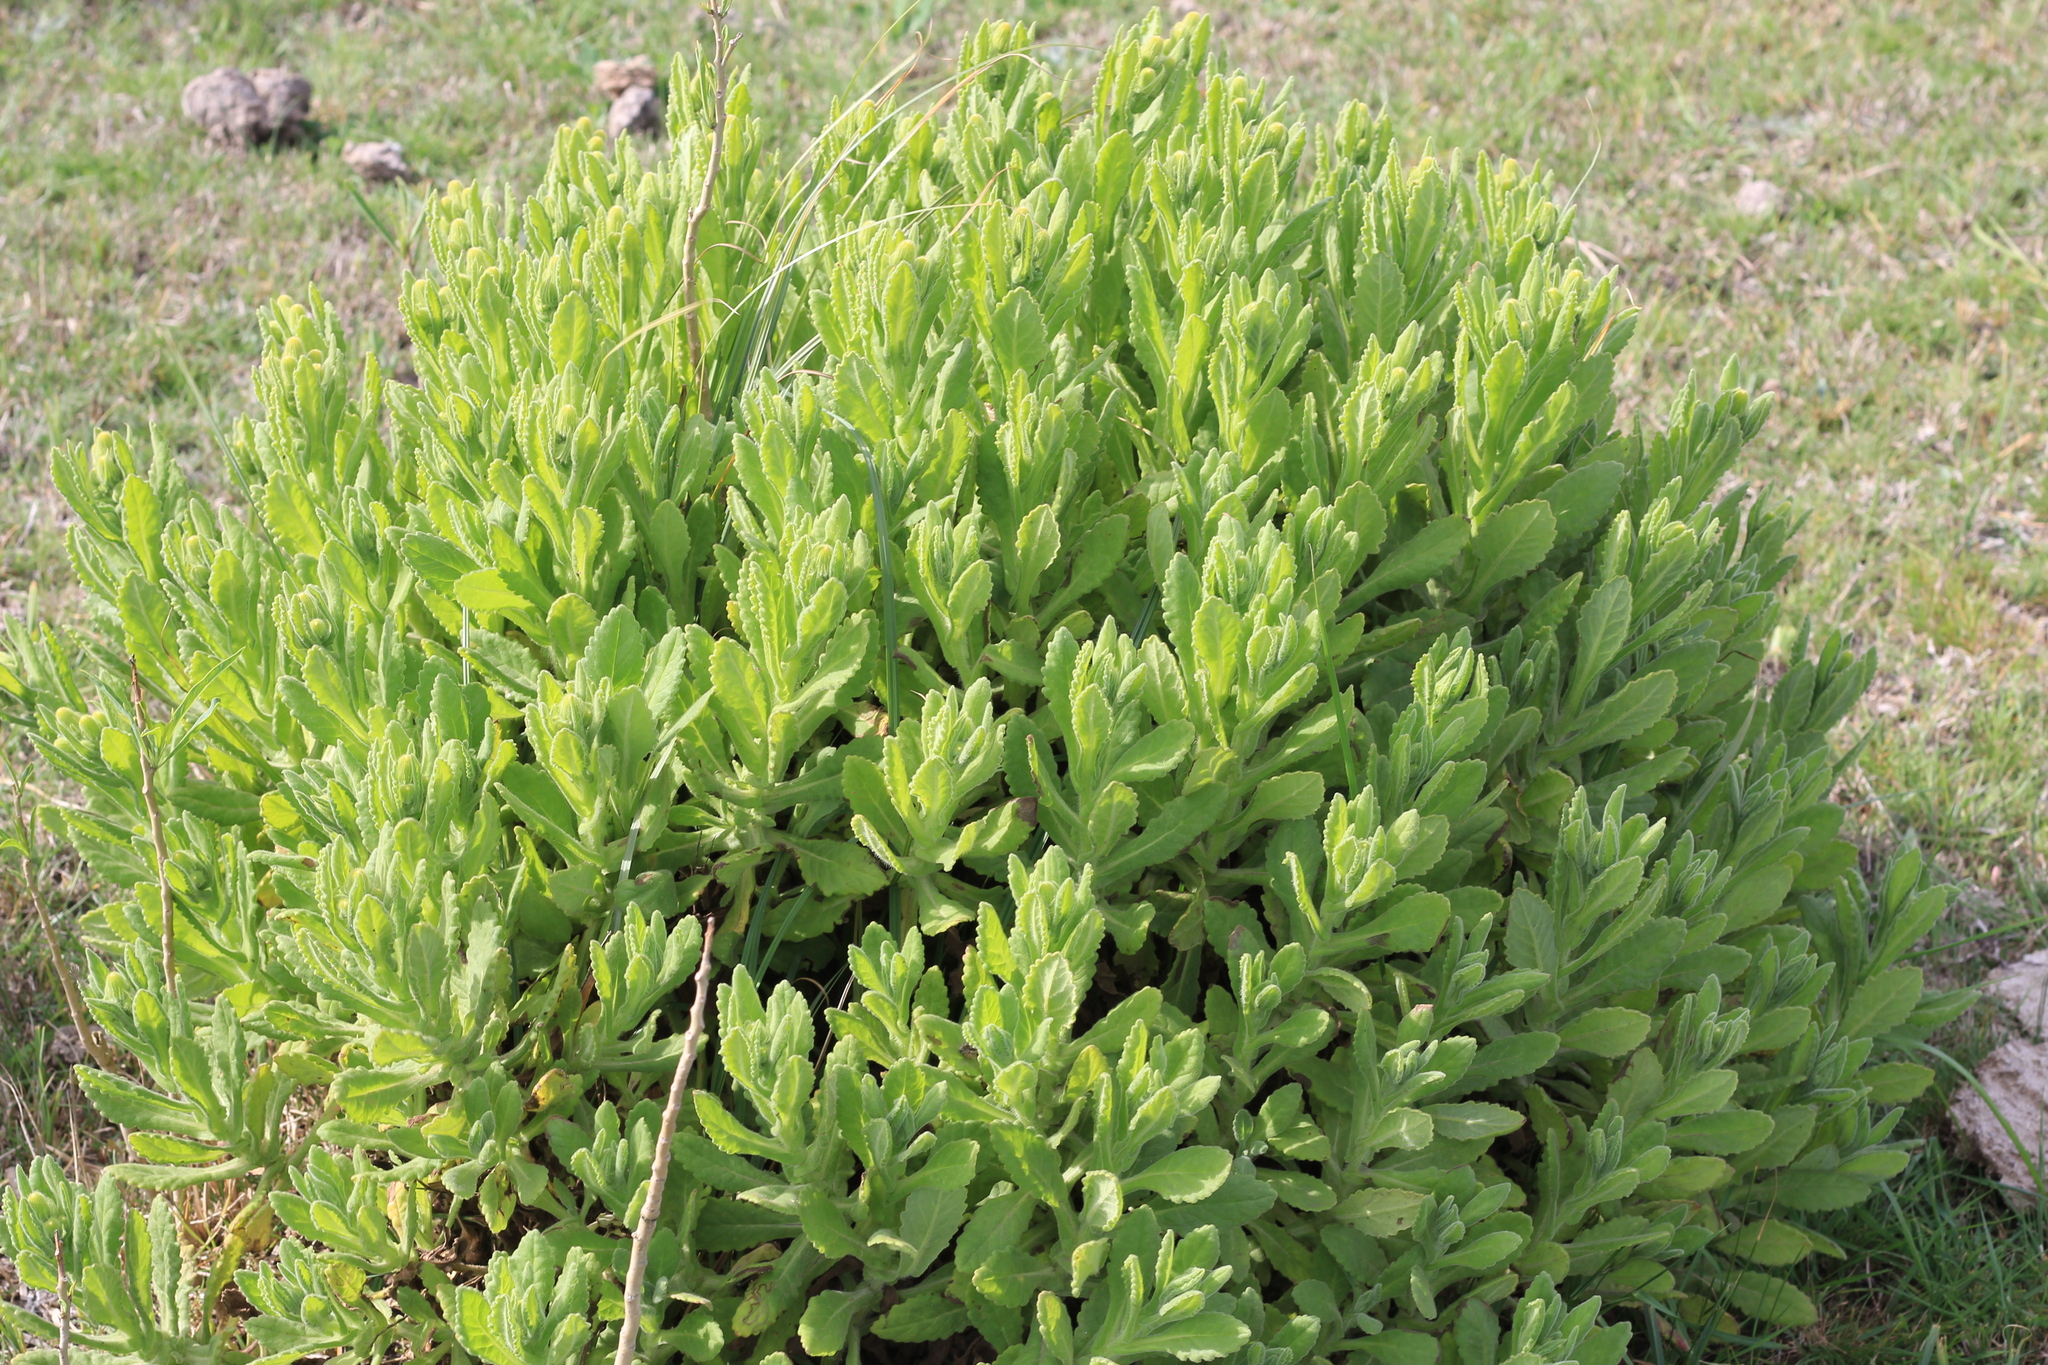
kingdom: Plantae
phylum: Tracheophyta
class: Magnoliopsida
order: Asterales
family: Asteraceae
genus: Senecio
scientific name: Senecio selloi
